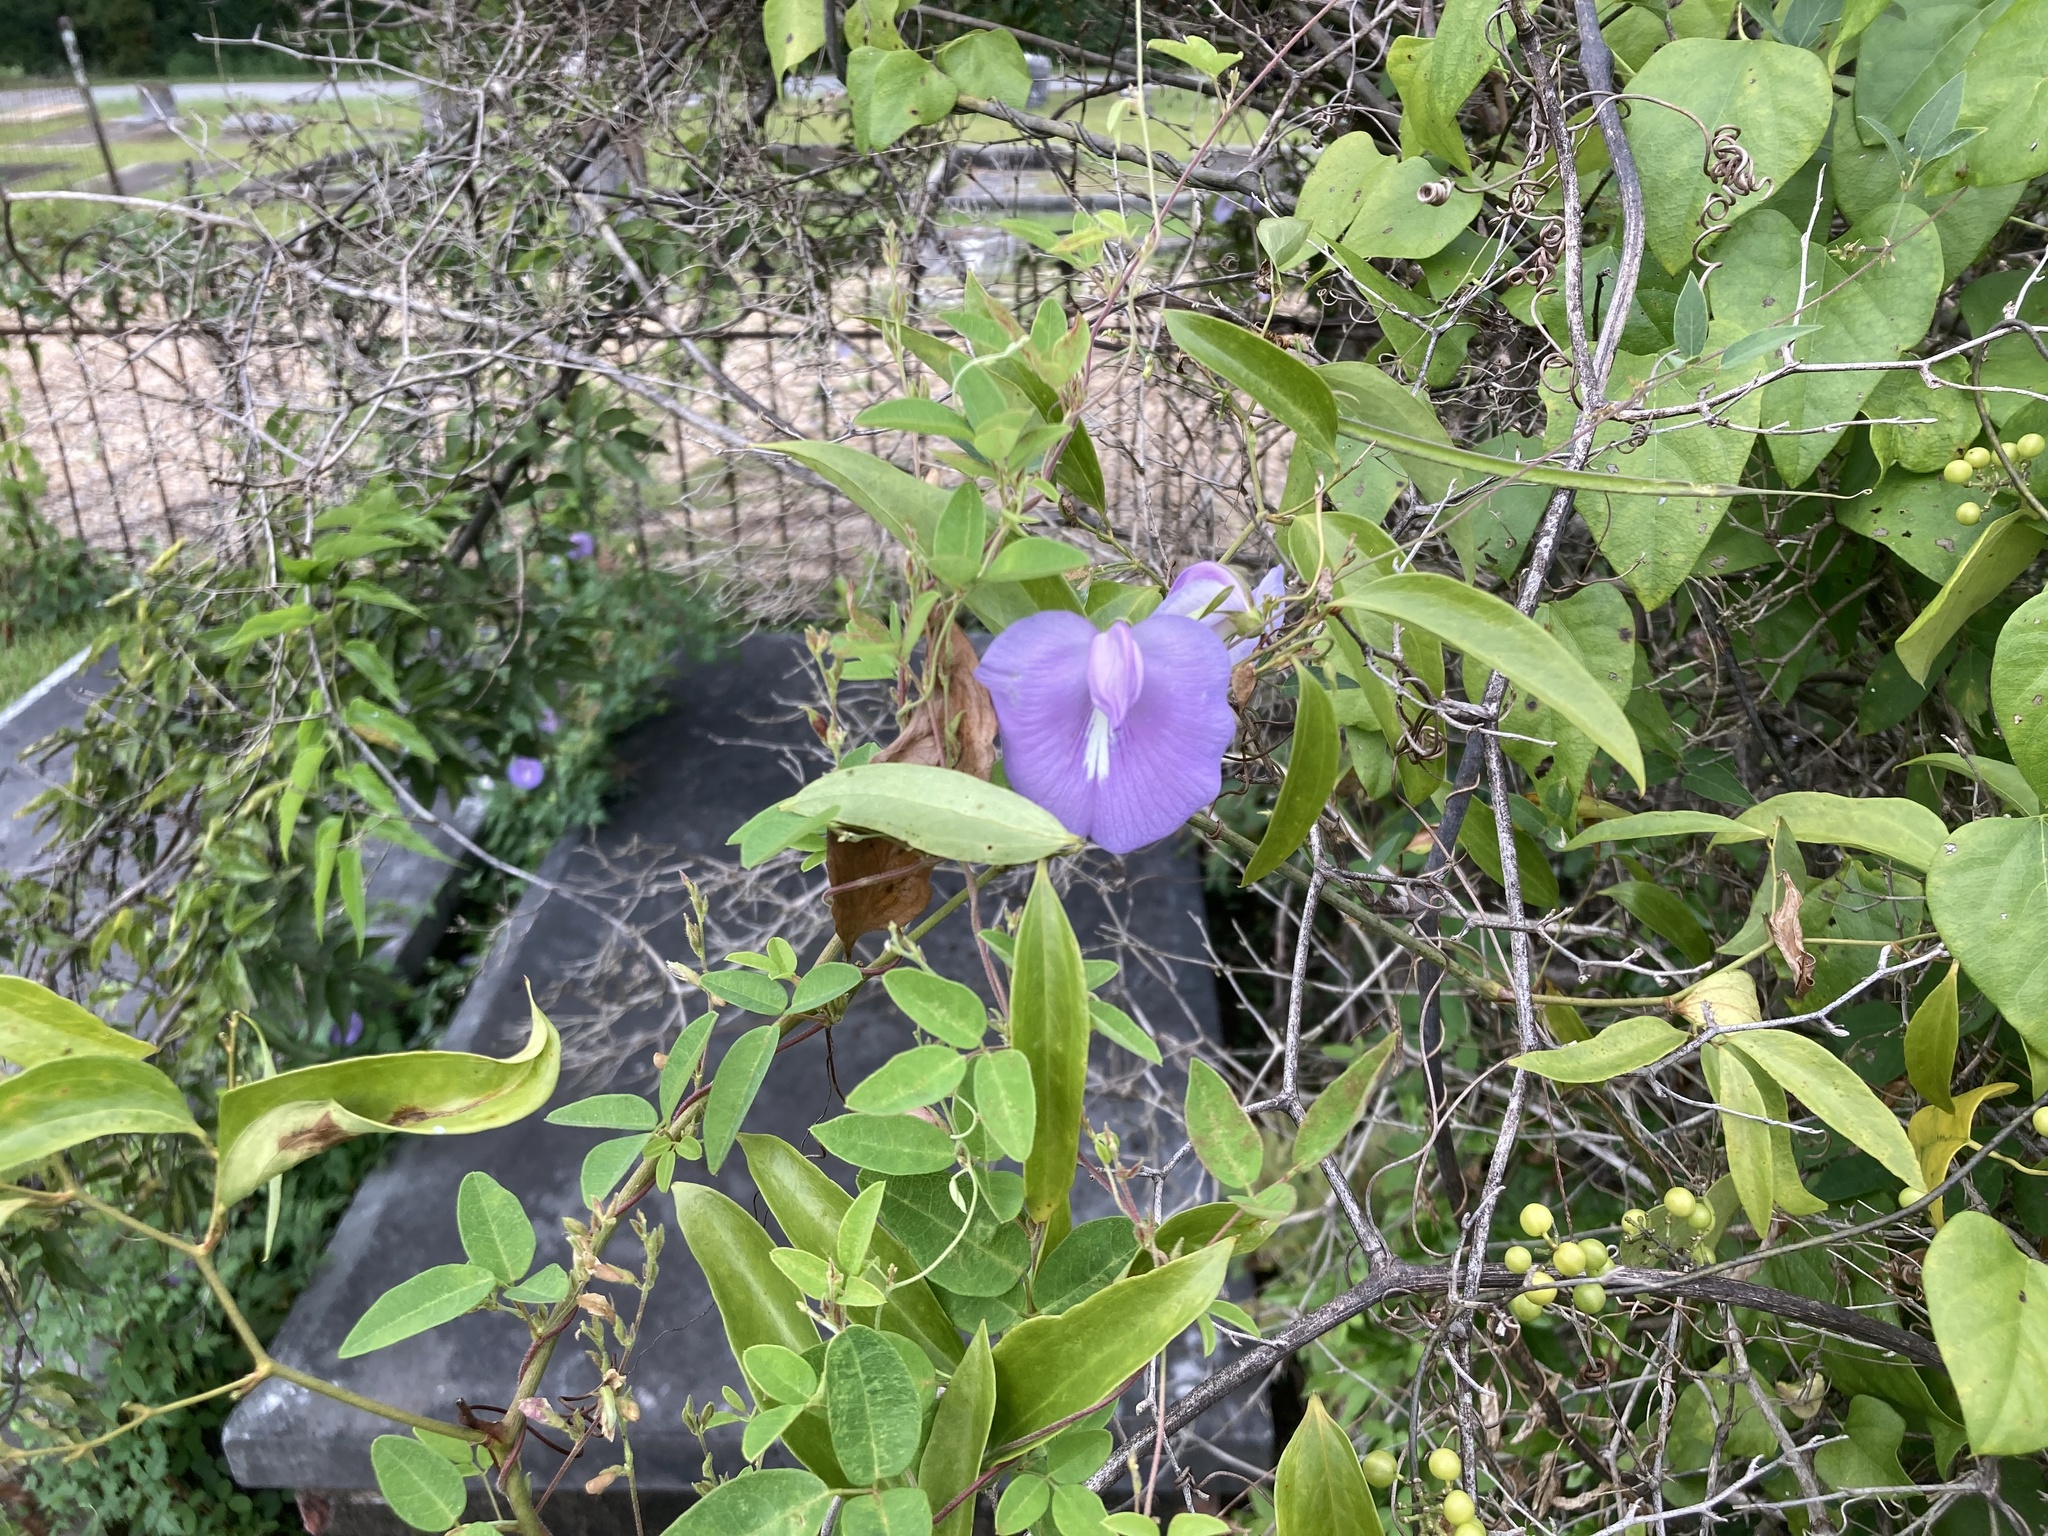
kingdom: Plantae
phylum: Tracheophyta
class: Magnoliopsida
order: Fabales
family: Fabaceae
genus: Centrosema
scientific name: Centrosema virginianum
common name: Butterfly-pea
